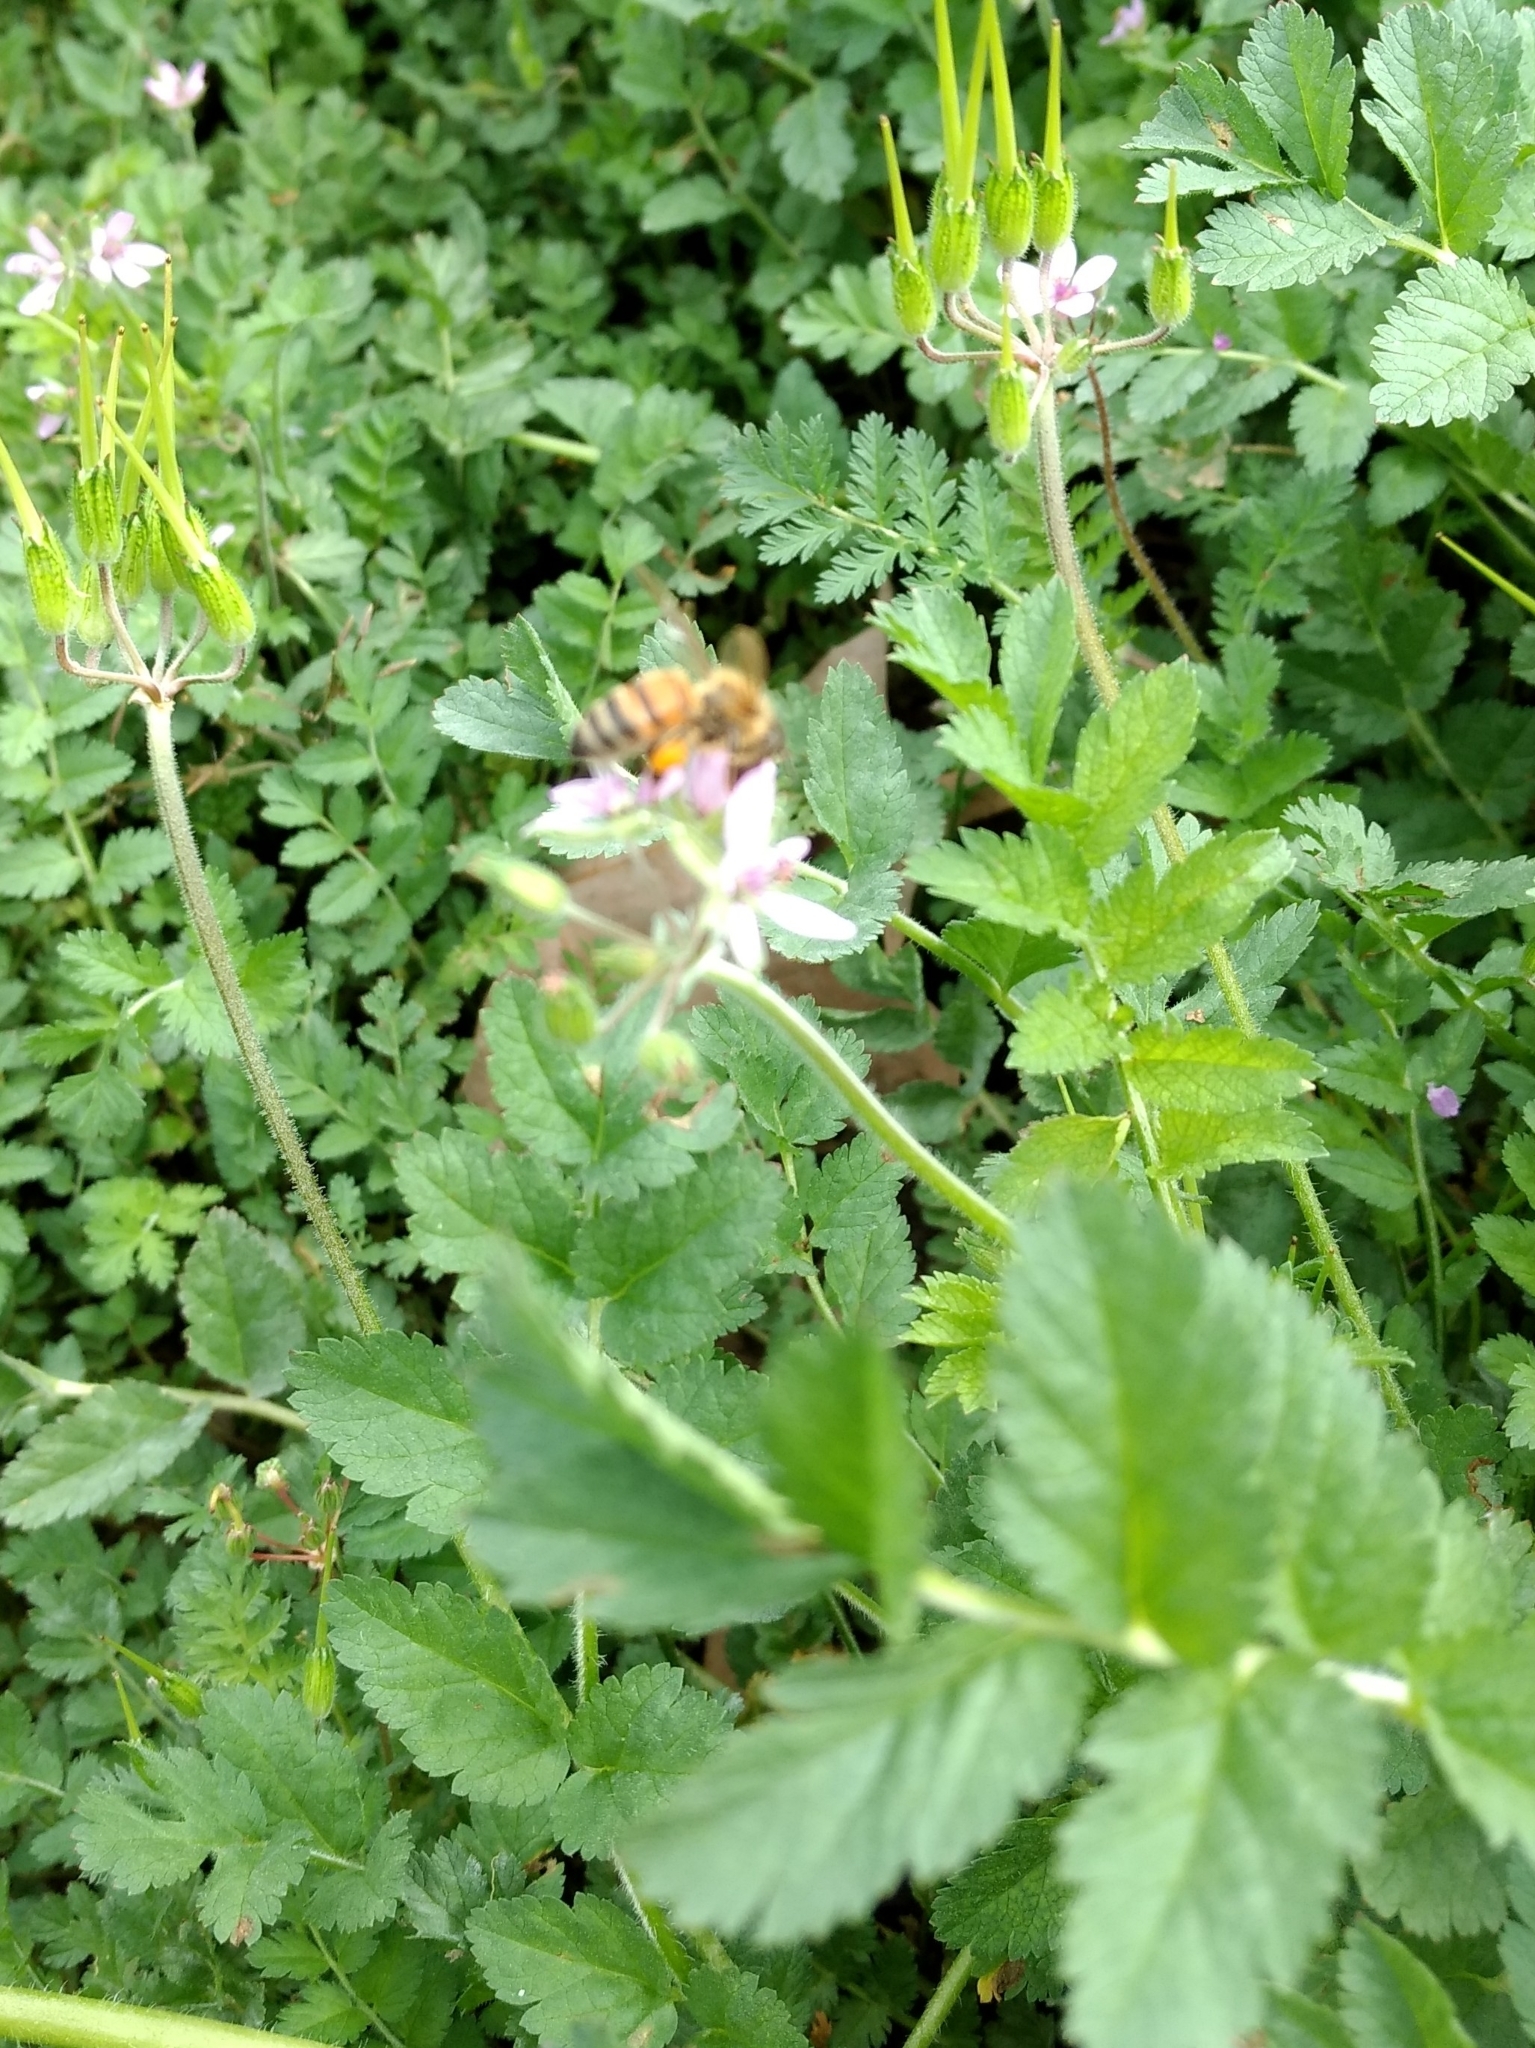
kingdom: Animalia
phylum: Arthropoda
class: Insecta
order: Hymenoptera
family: Apidae
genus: Apis
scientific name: Apis mellifera
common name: Honey bee
